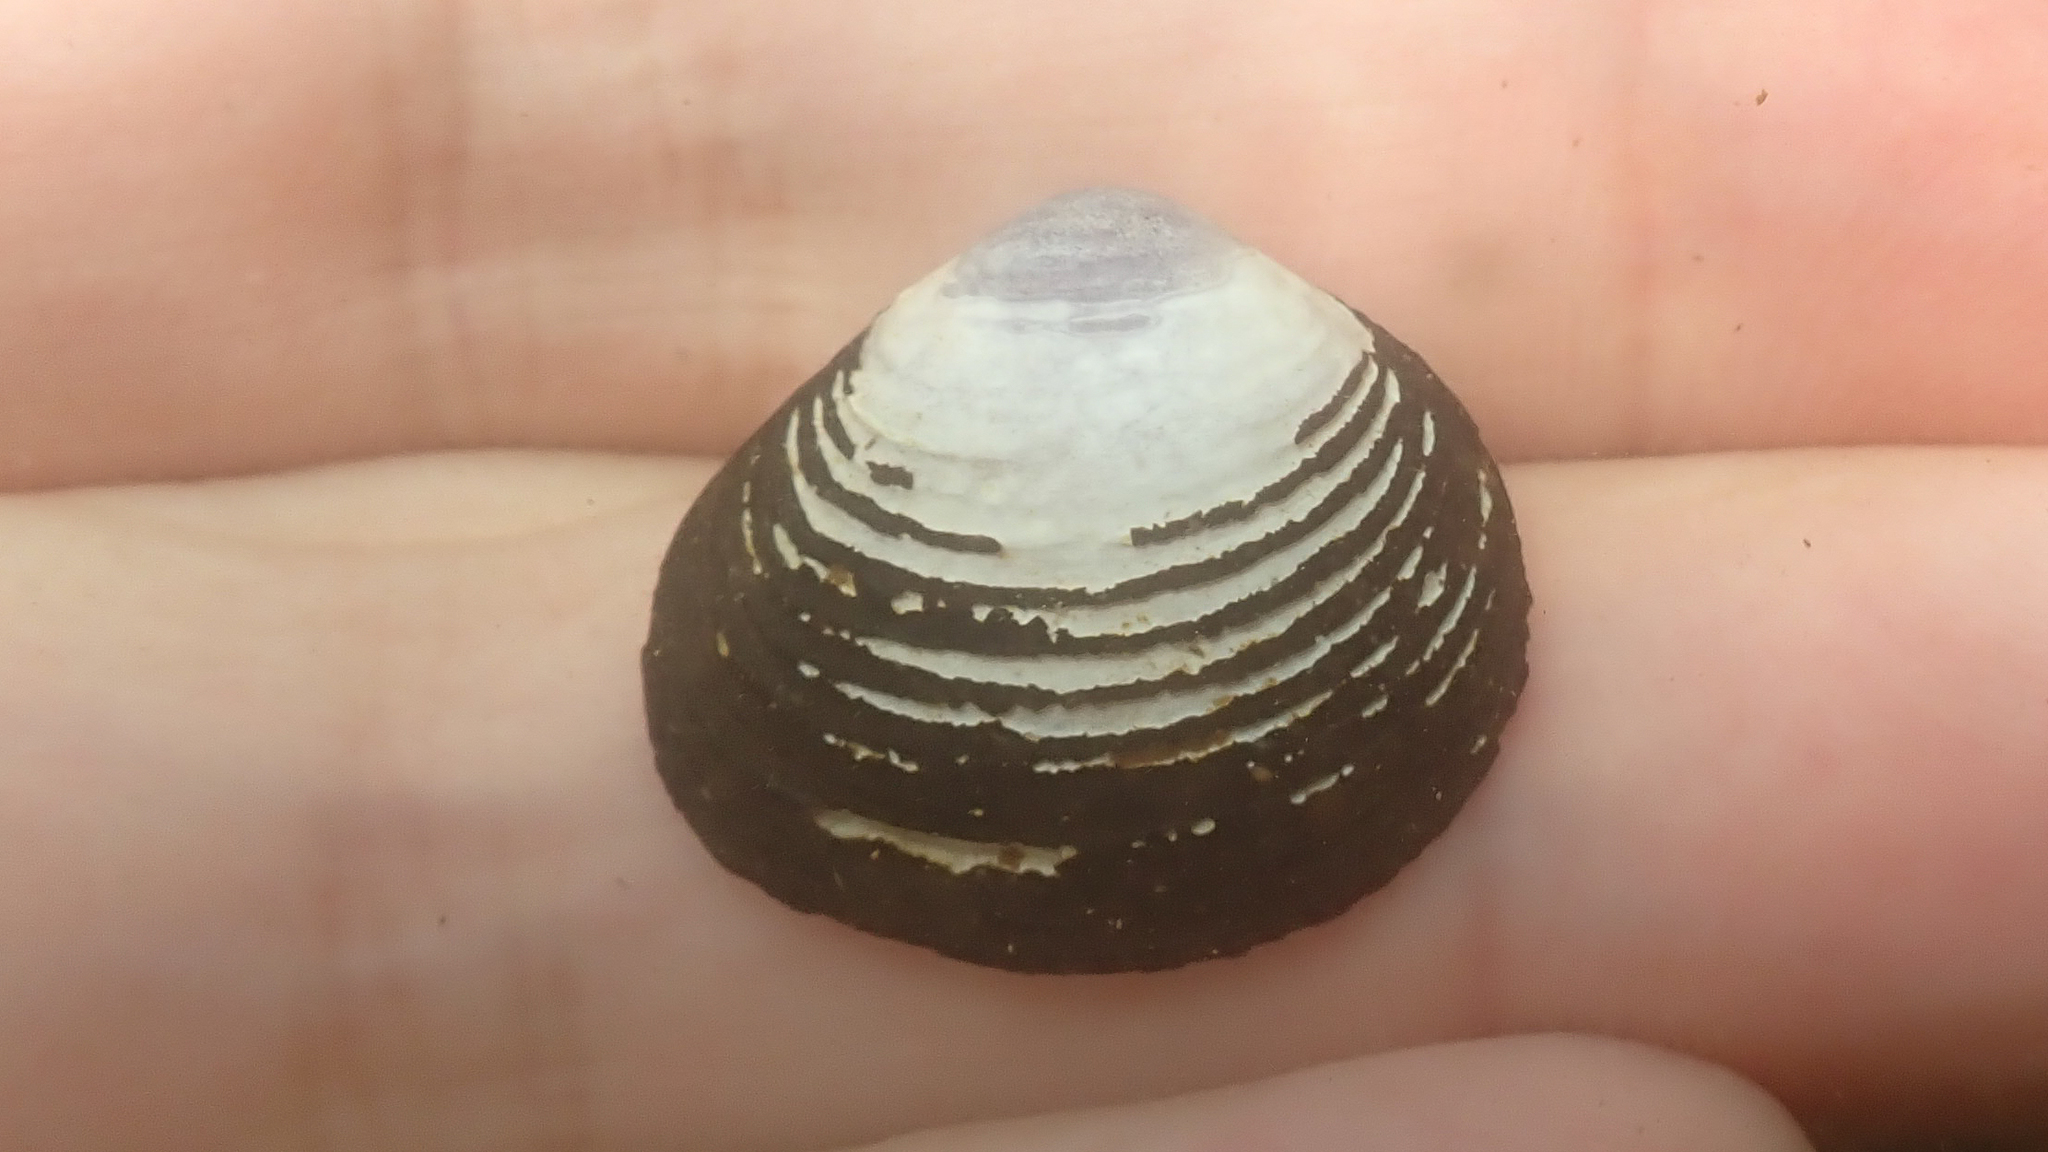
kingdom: Animalia
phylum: Mollusca
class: Bivalvia
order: Venerida
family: Cyrenidae
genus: Corbicula
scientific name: Corbicula fluminea
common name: Asian clam
